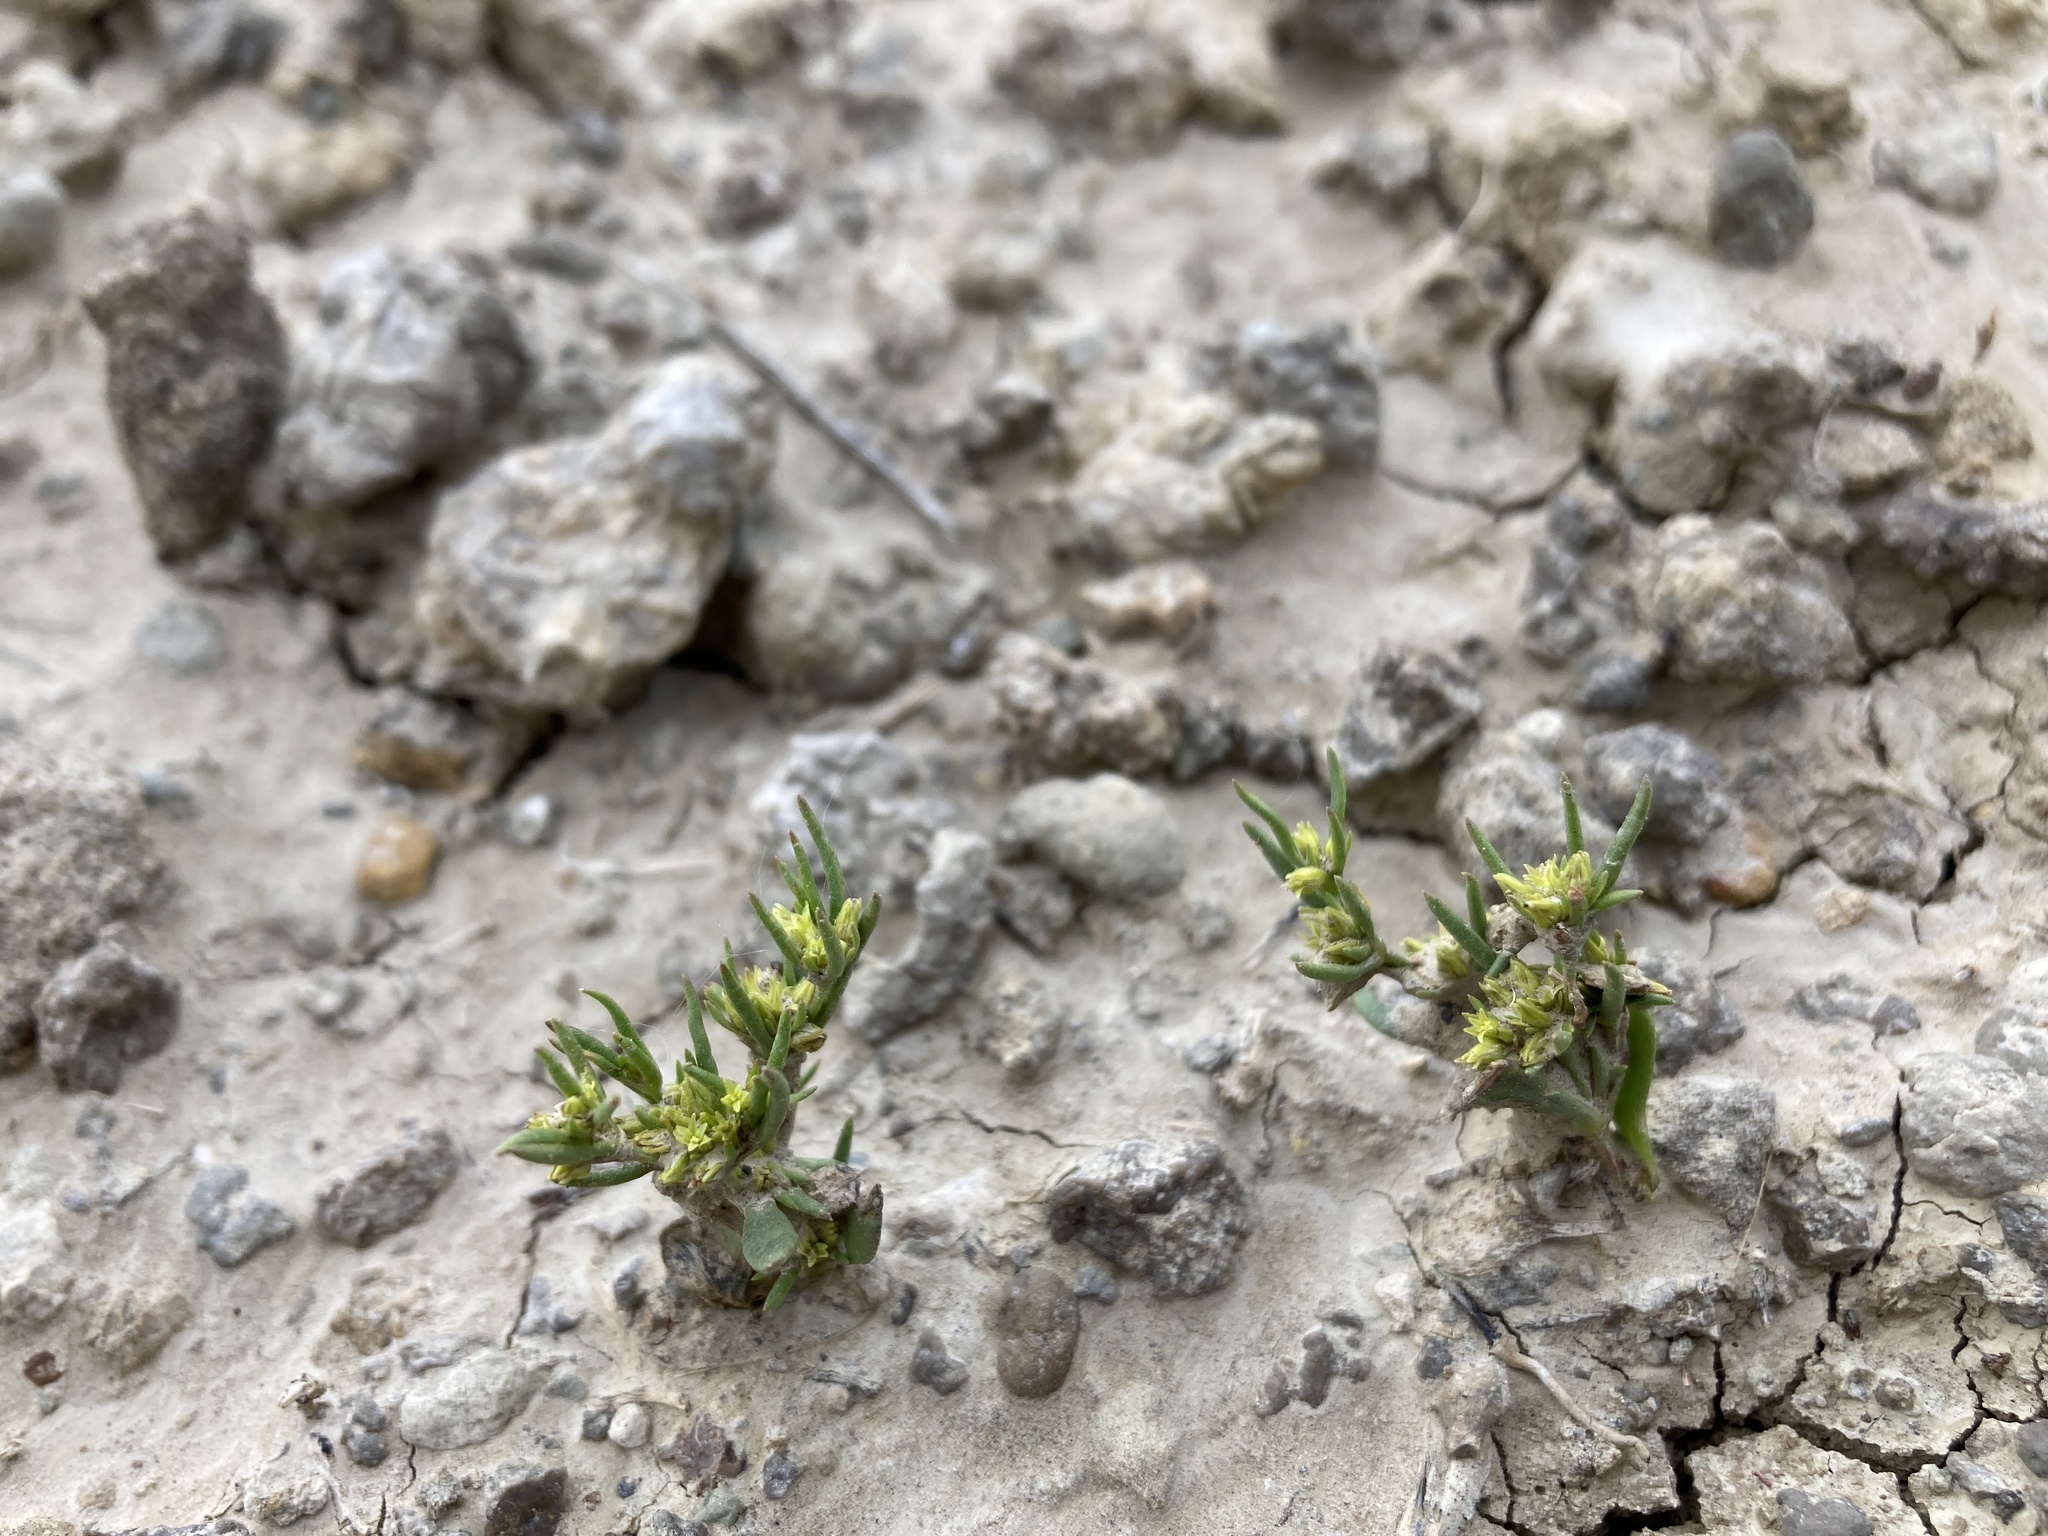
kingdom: Plantae
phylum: Tracheophyta
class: Magnoliopsida
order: Caryophyllales
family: Polygonaceae
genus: Stenogonum
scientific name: Stenogonum salsuginosum
